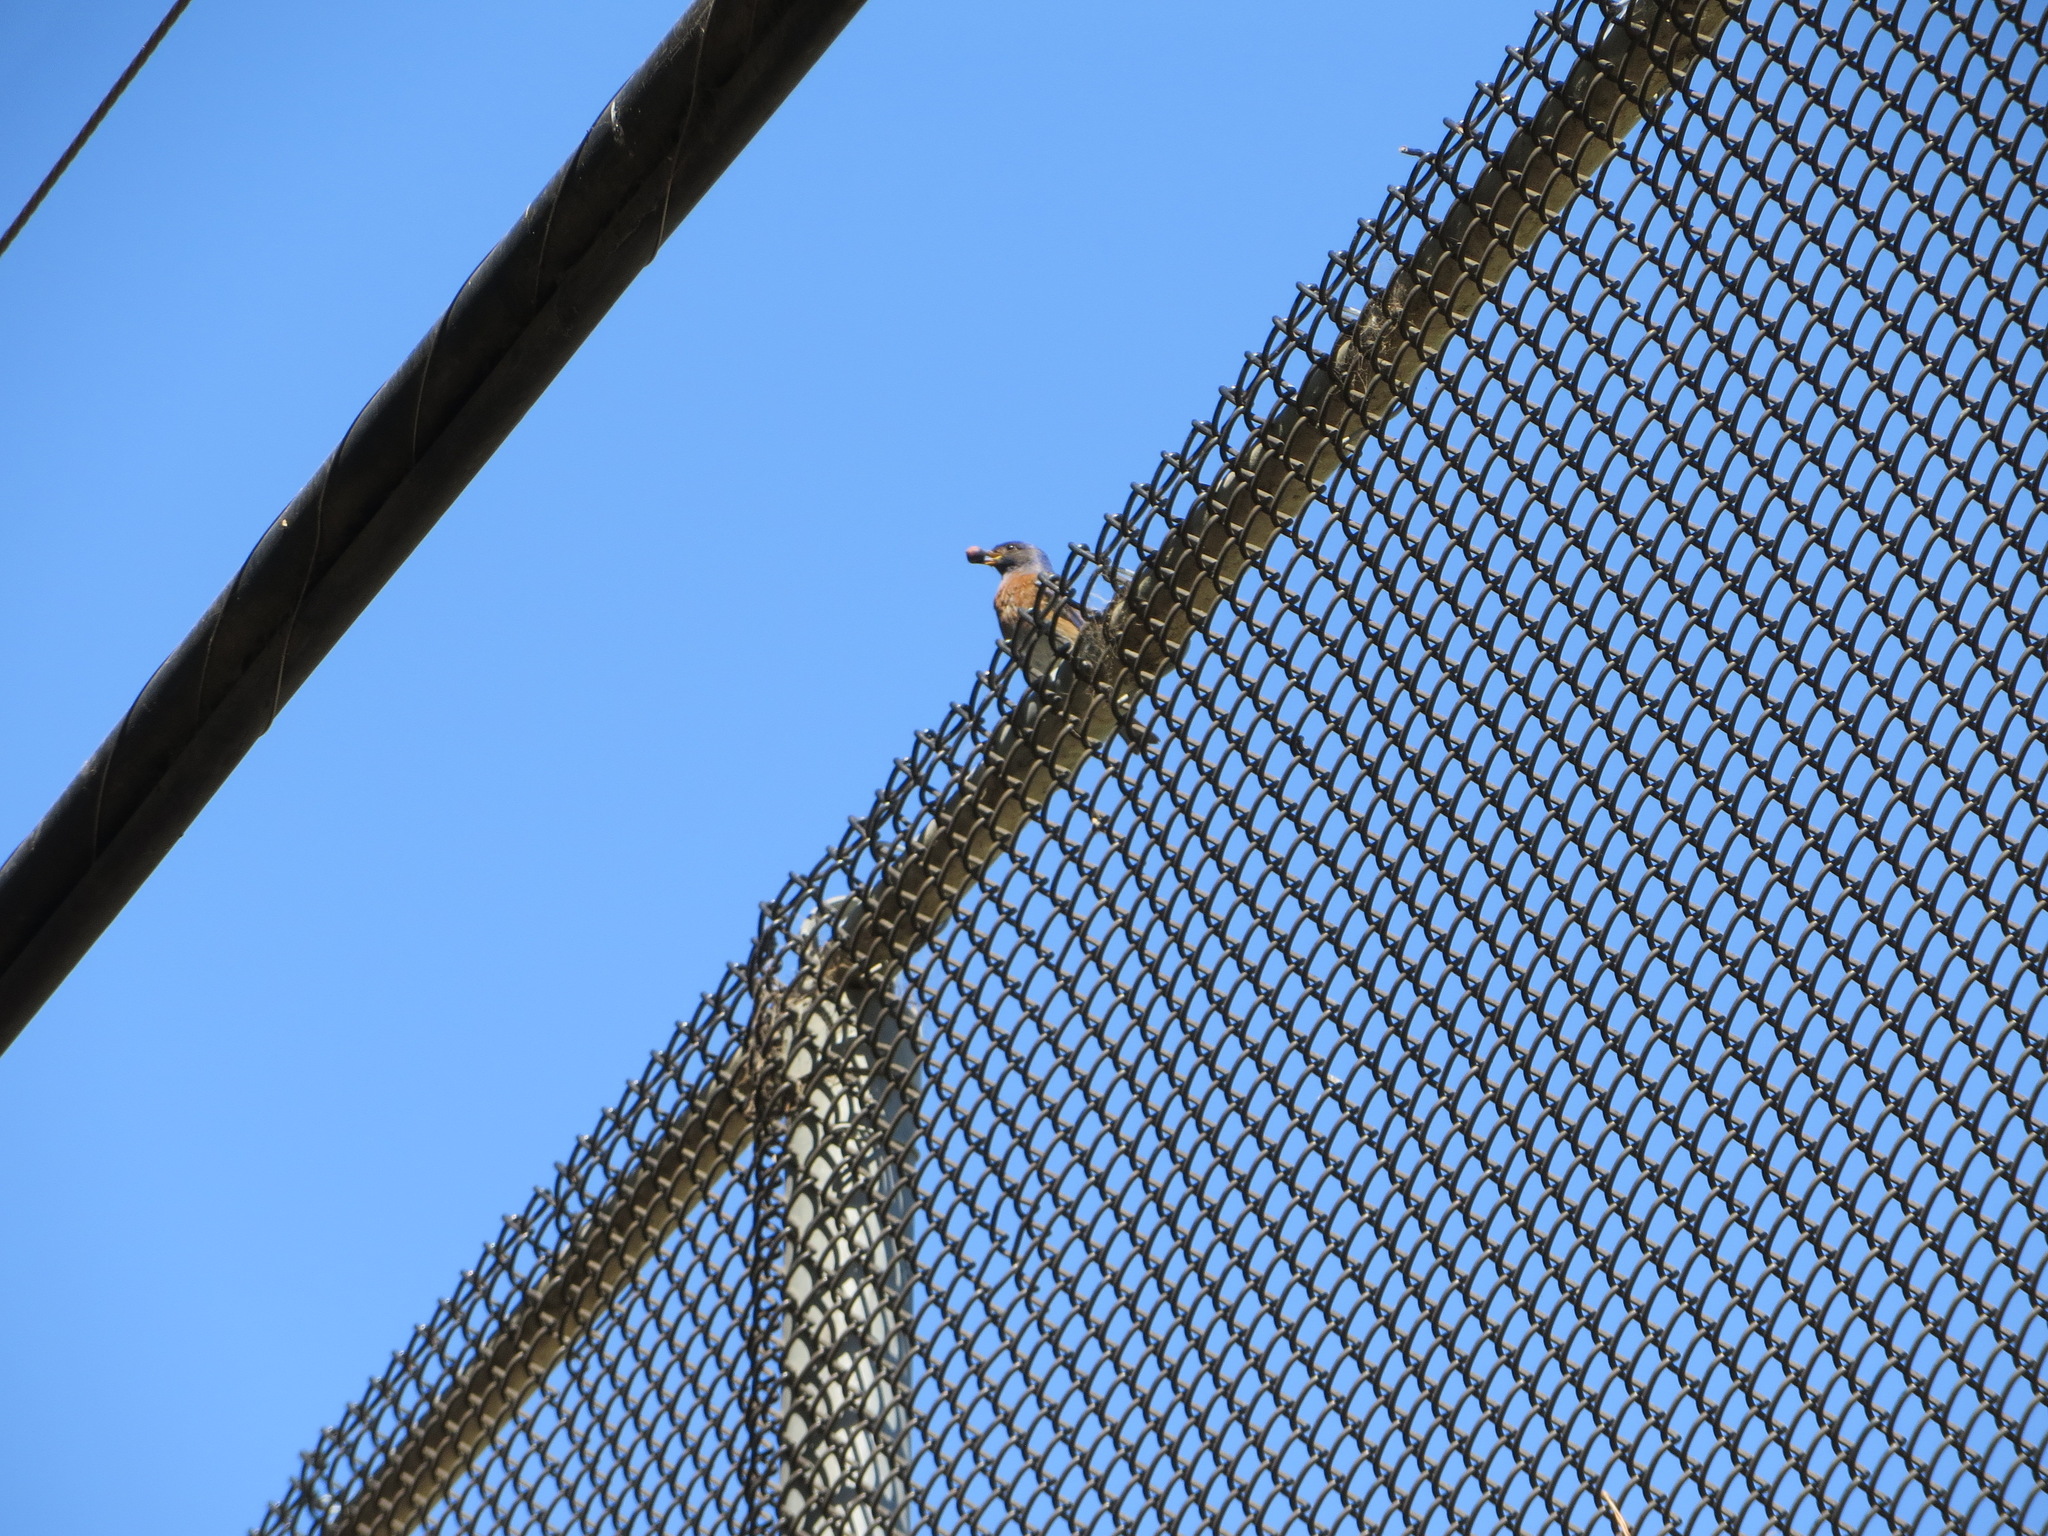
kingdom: Animalia
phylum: Chordata
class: Aves
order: Passeriformes
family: Turdidae
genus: Sialia
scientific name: Sialia mexicana
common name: Western bluebird
